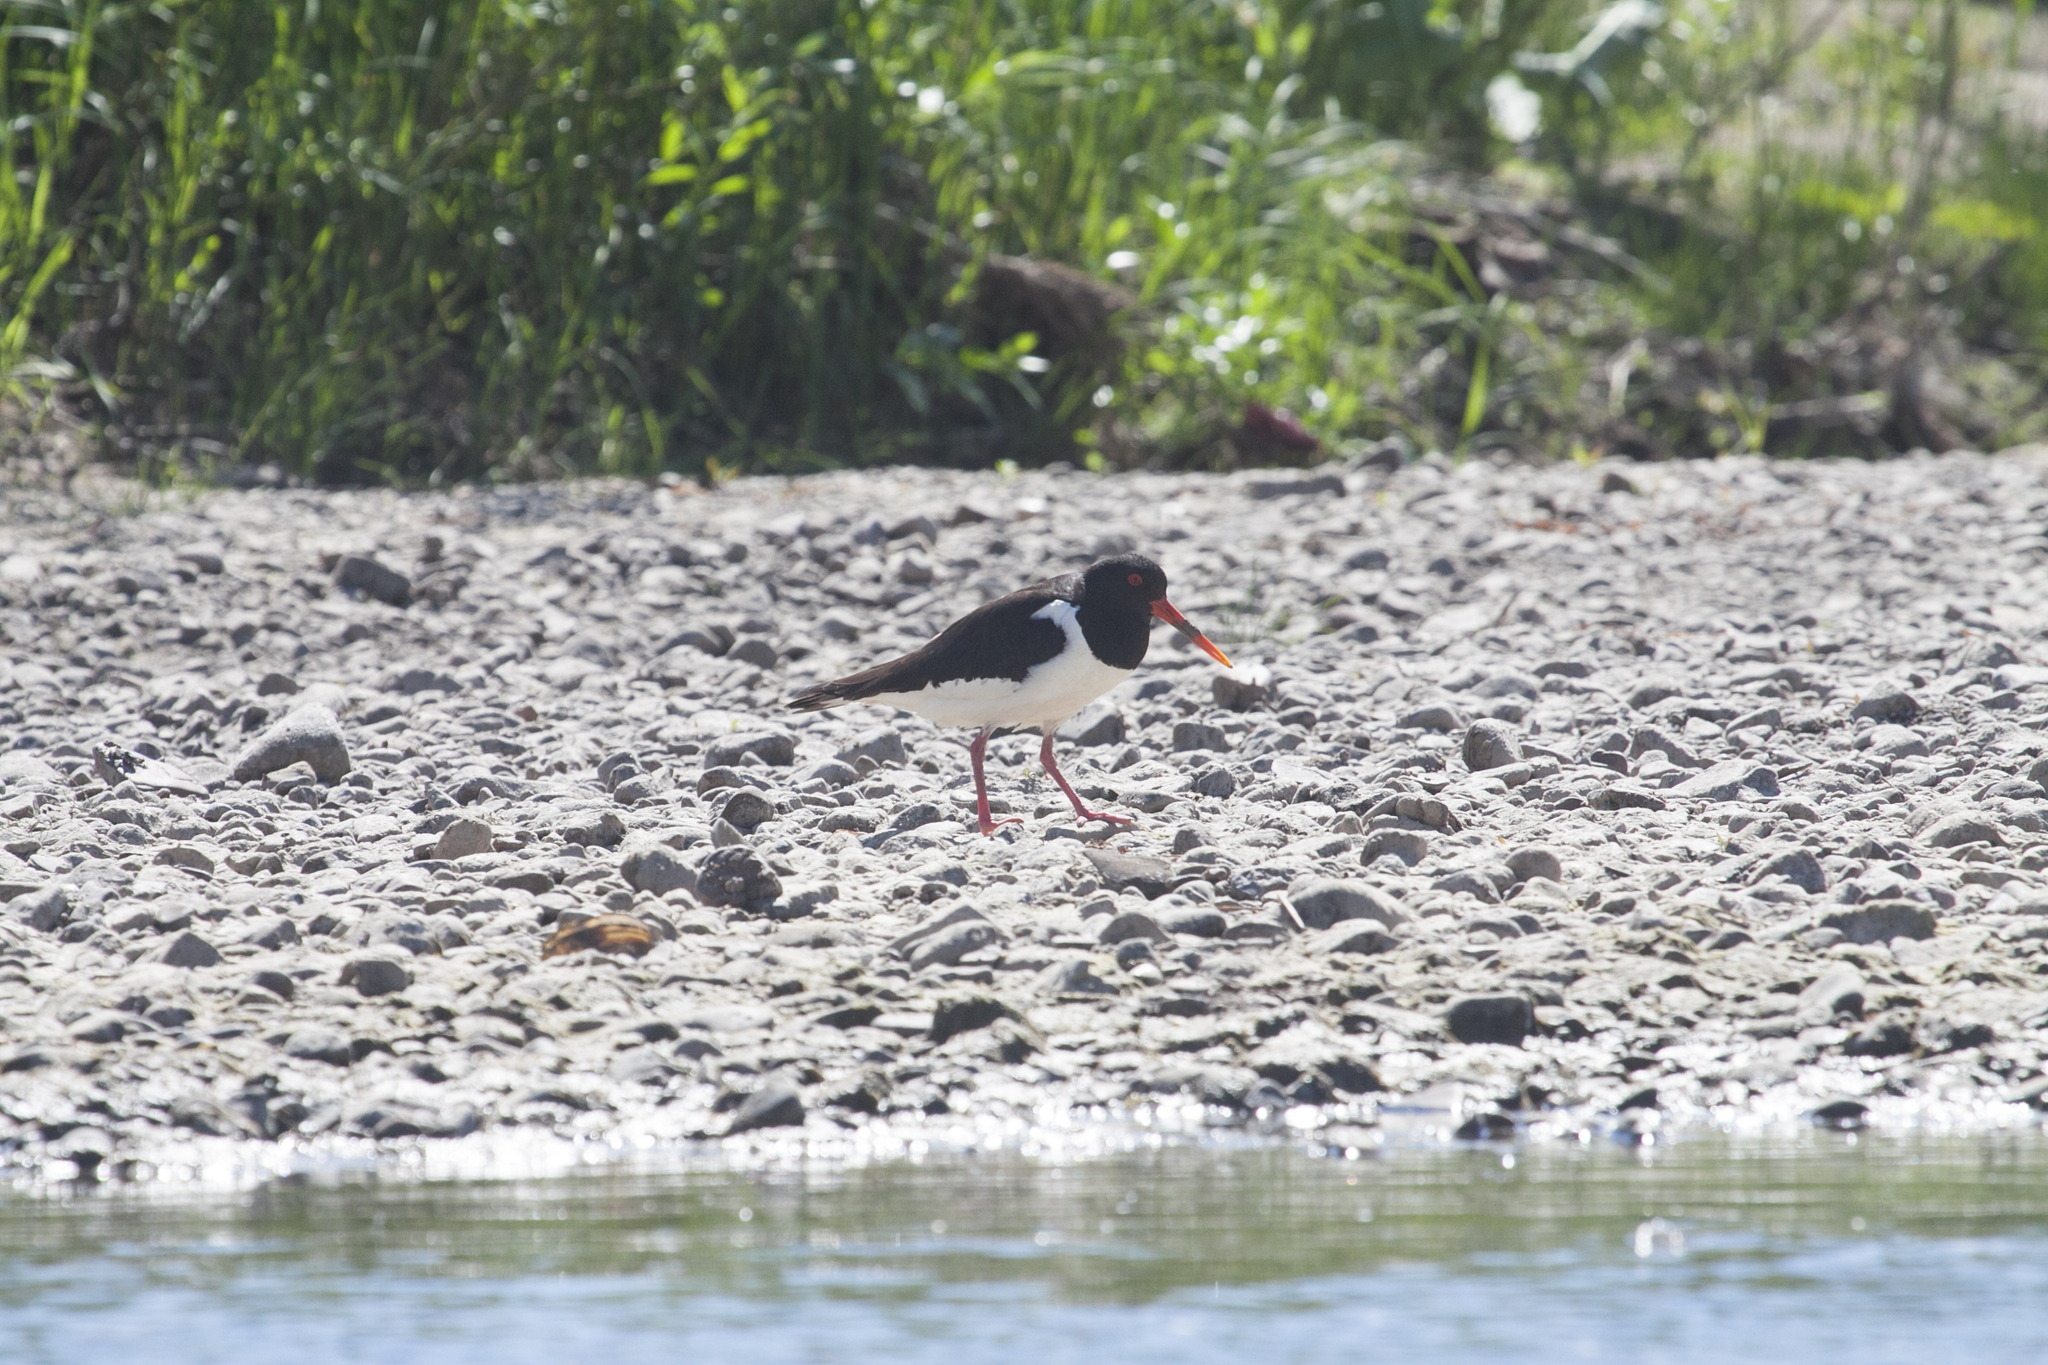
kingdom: Animalia
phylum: Chordata
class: Aves
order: Charadriiformes
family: Haematopodidae
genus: Haematopus
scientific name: Haematopus ostralegus
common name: Eurasian oystercatcher
